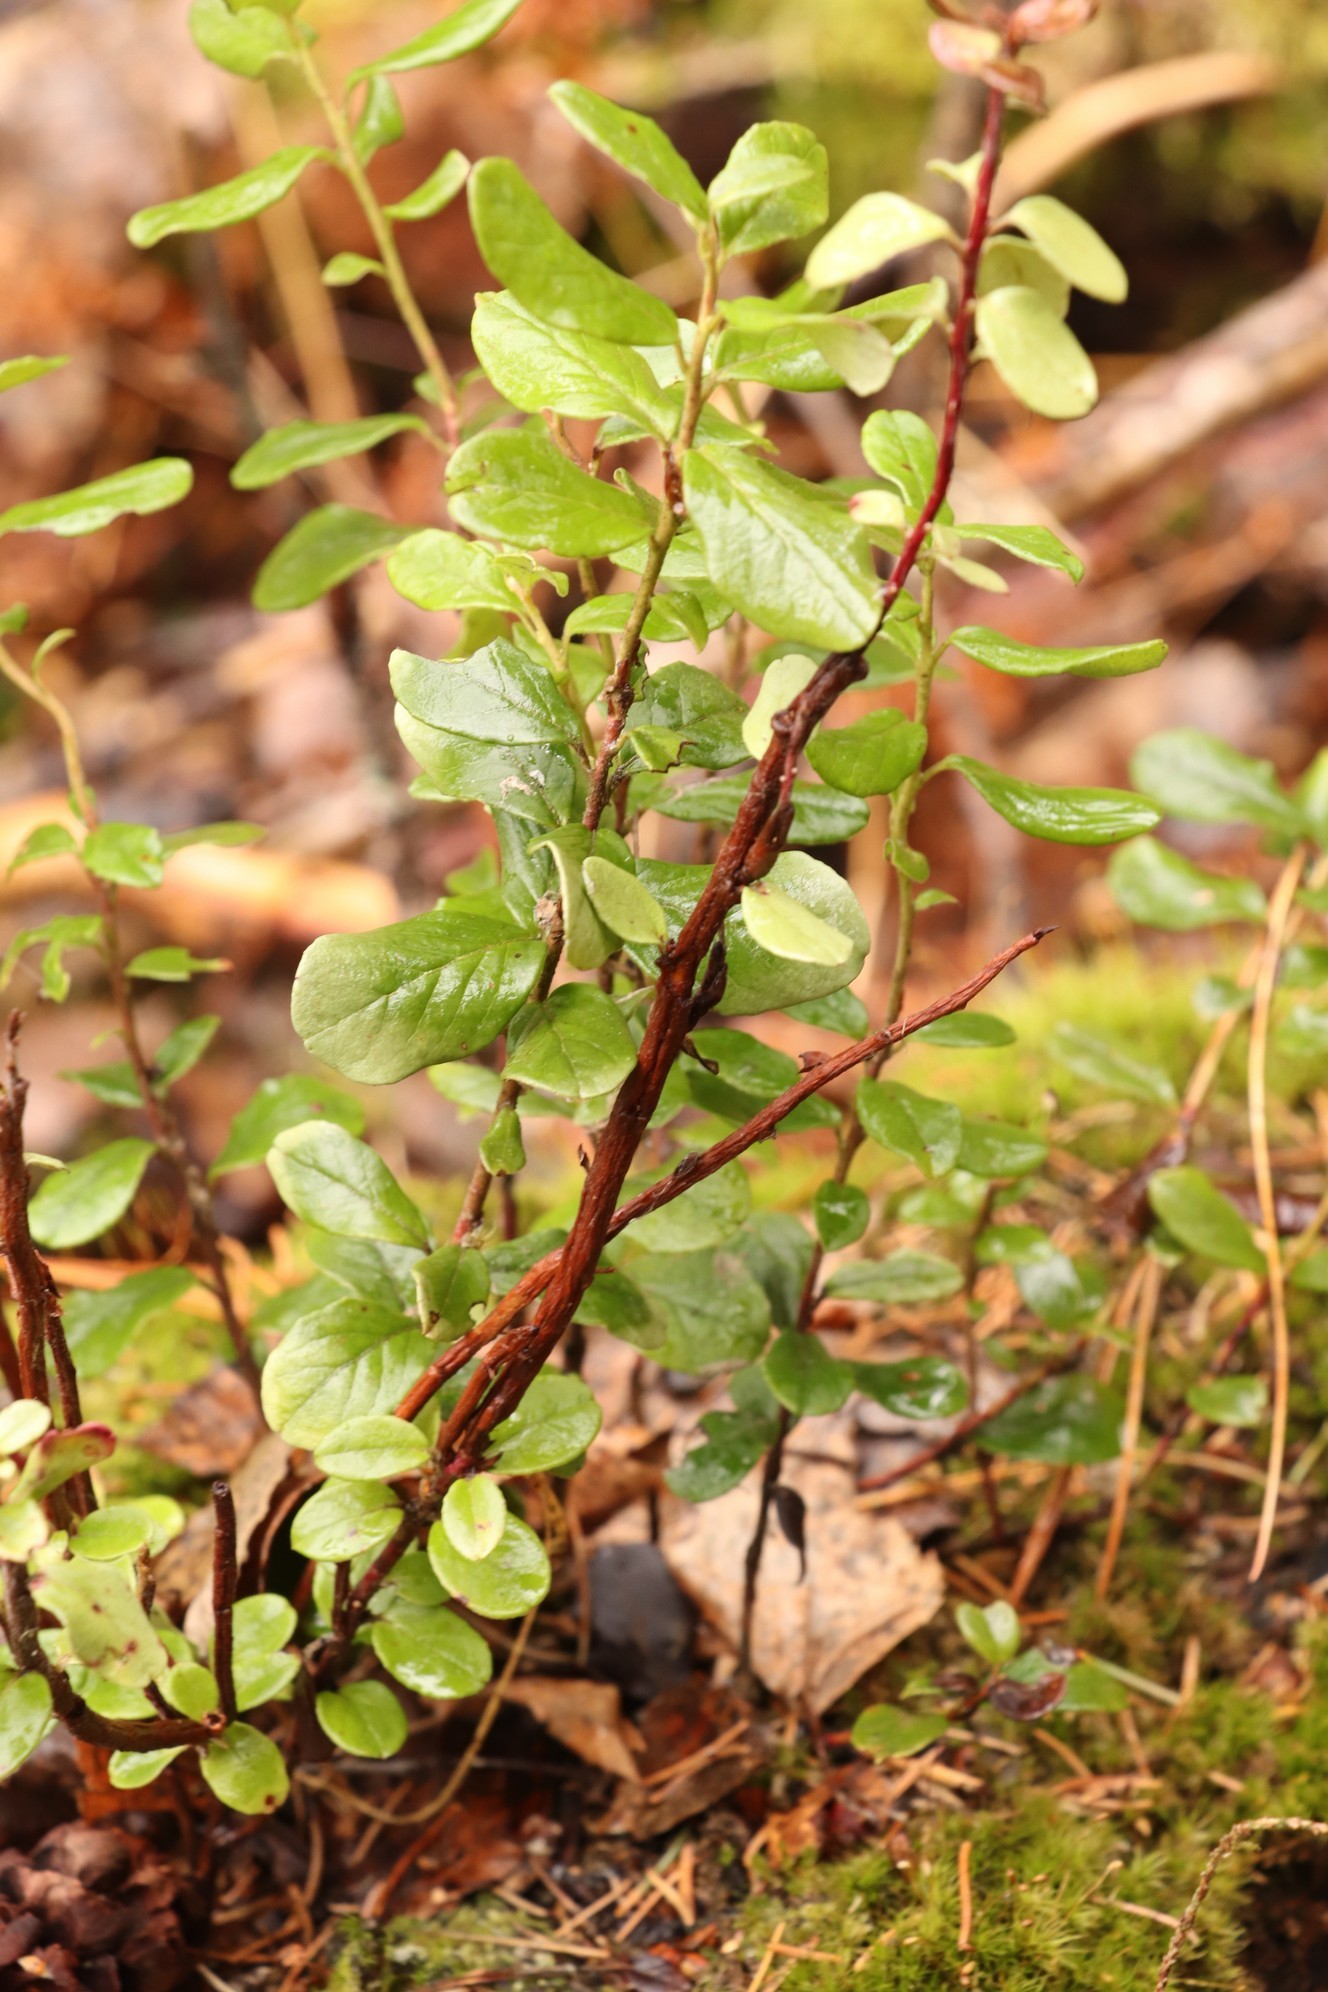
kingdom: Fungi
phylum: Basidiomycota
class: Pucciniomycetes
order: Pucciniales
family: Pucciniastraceae
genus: Calyptospora
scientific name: Calyptospora columnaris
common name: Huckleberry broom rust fungus
